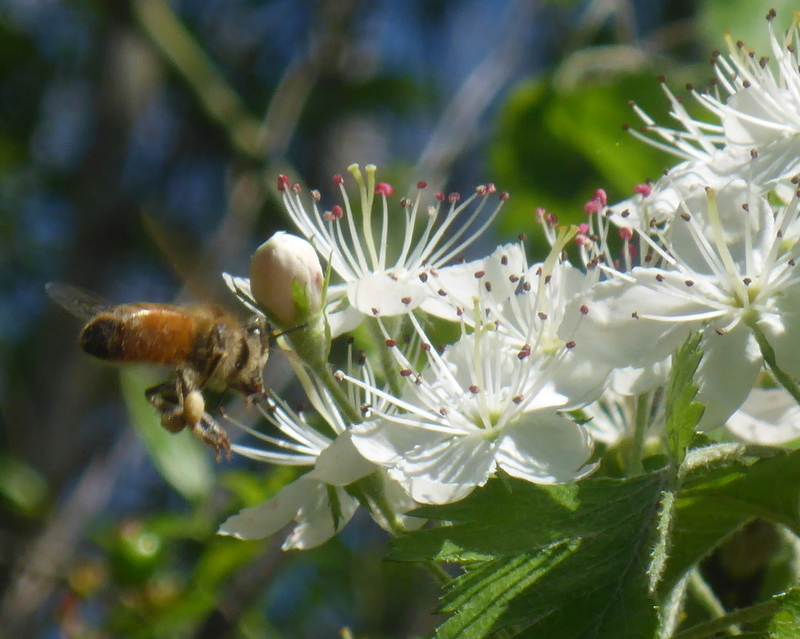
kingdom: Animalia
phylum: Arthropoda
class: Insecta
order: Hymenoptera
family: Apidae
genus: Apis
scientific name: Apis mellifera
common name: Honey bee
